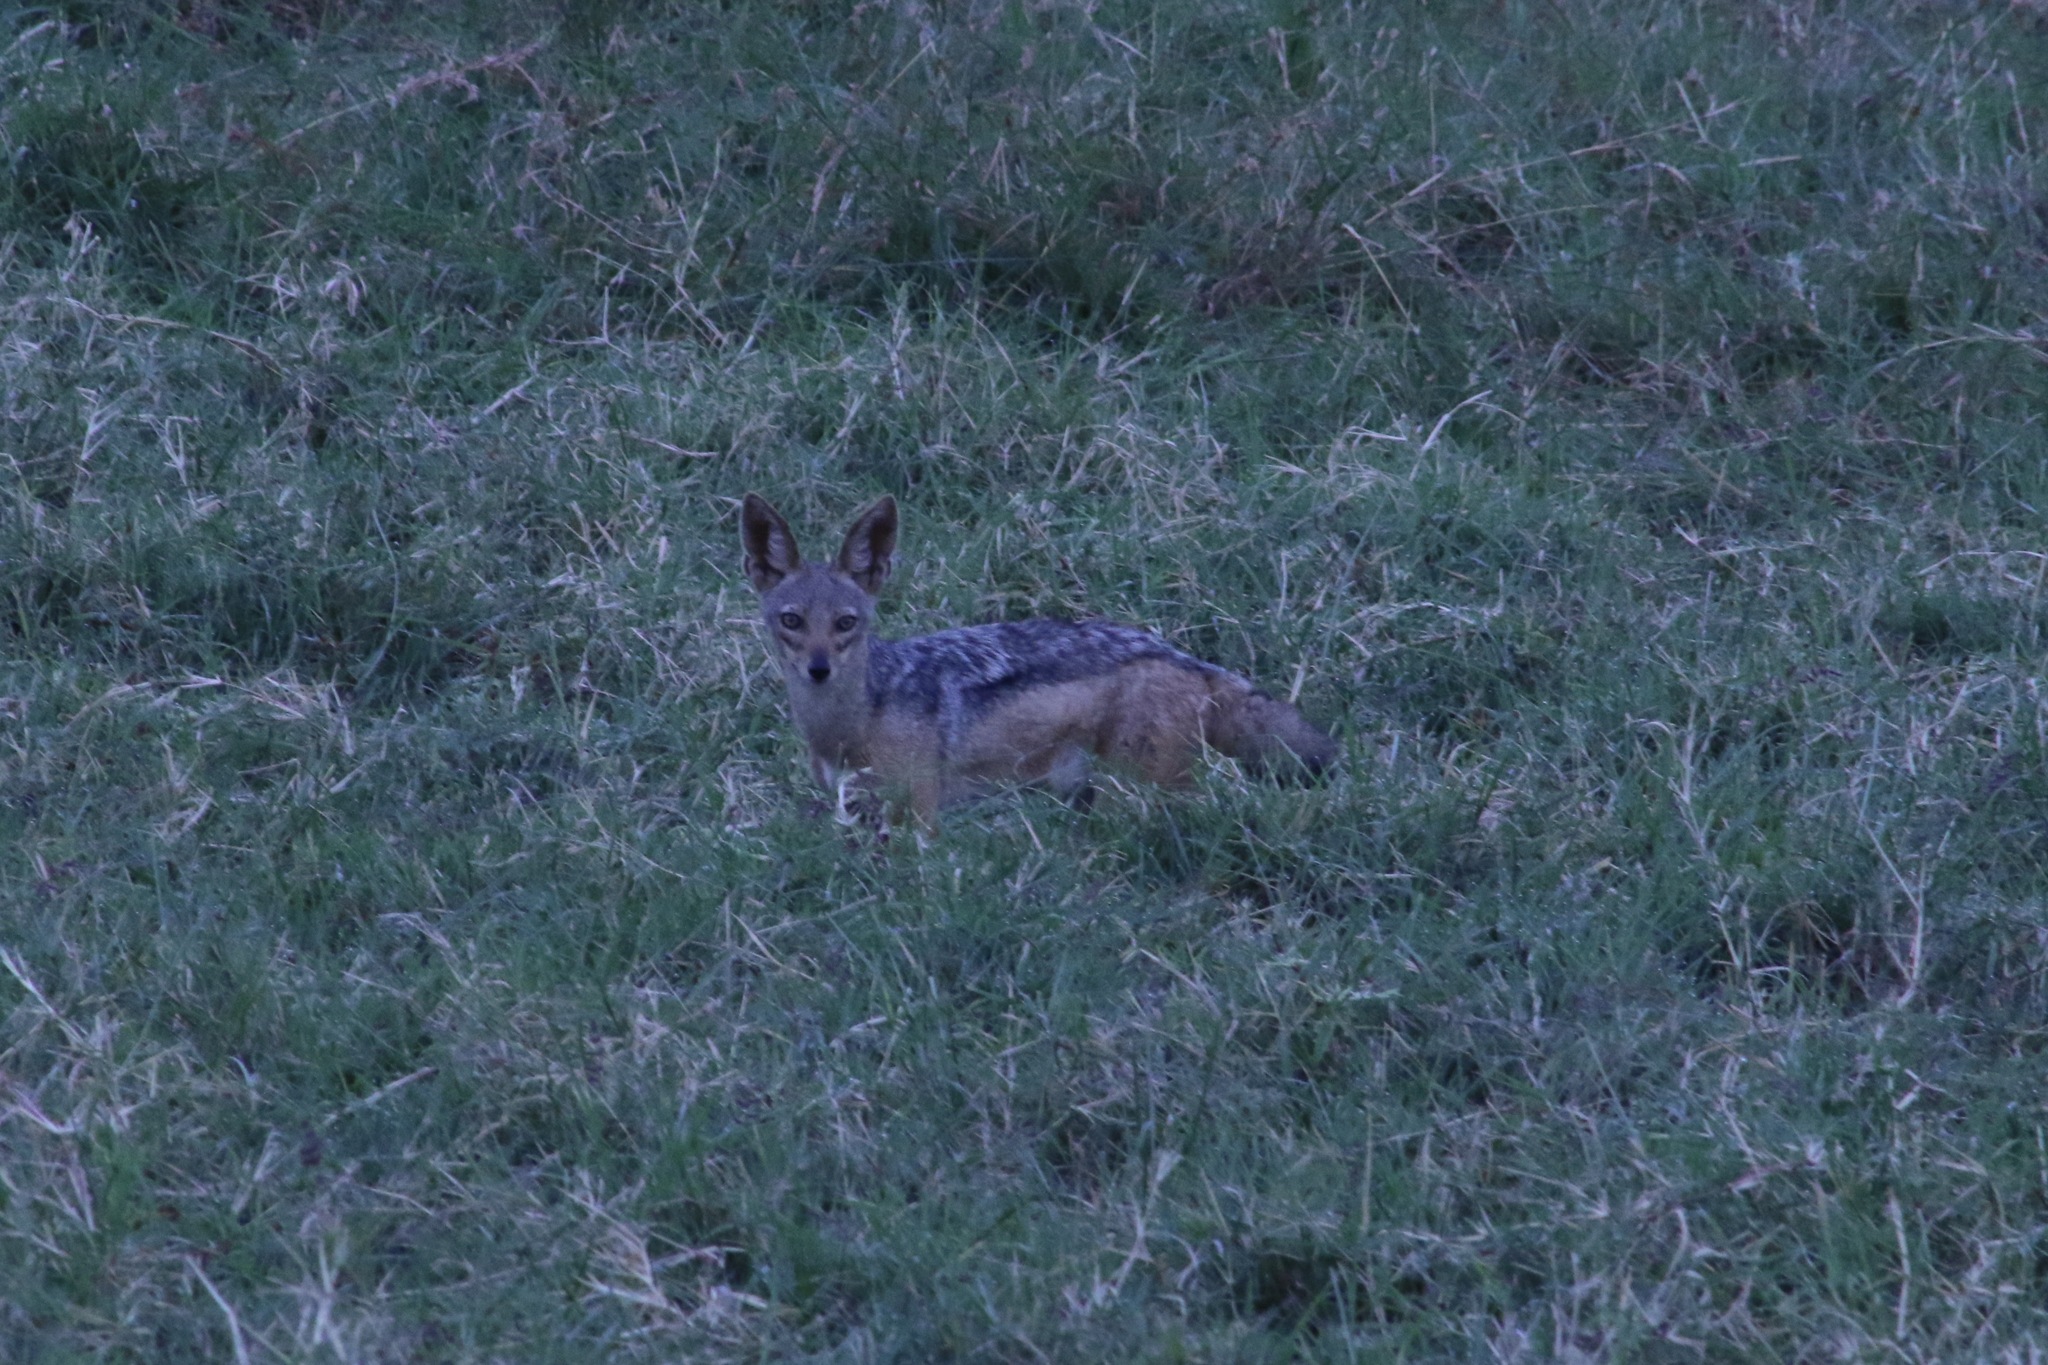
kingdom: Animalia
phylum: Chordata
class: Mammalia
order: Carnivora
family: Canidae
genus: Lupulella
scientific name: Lupulella
